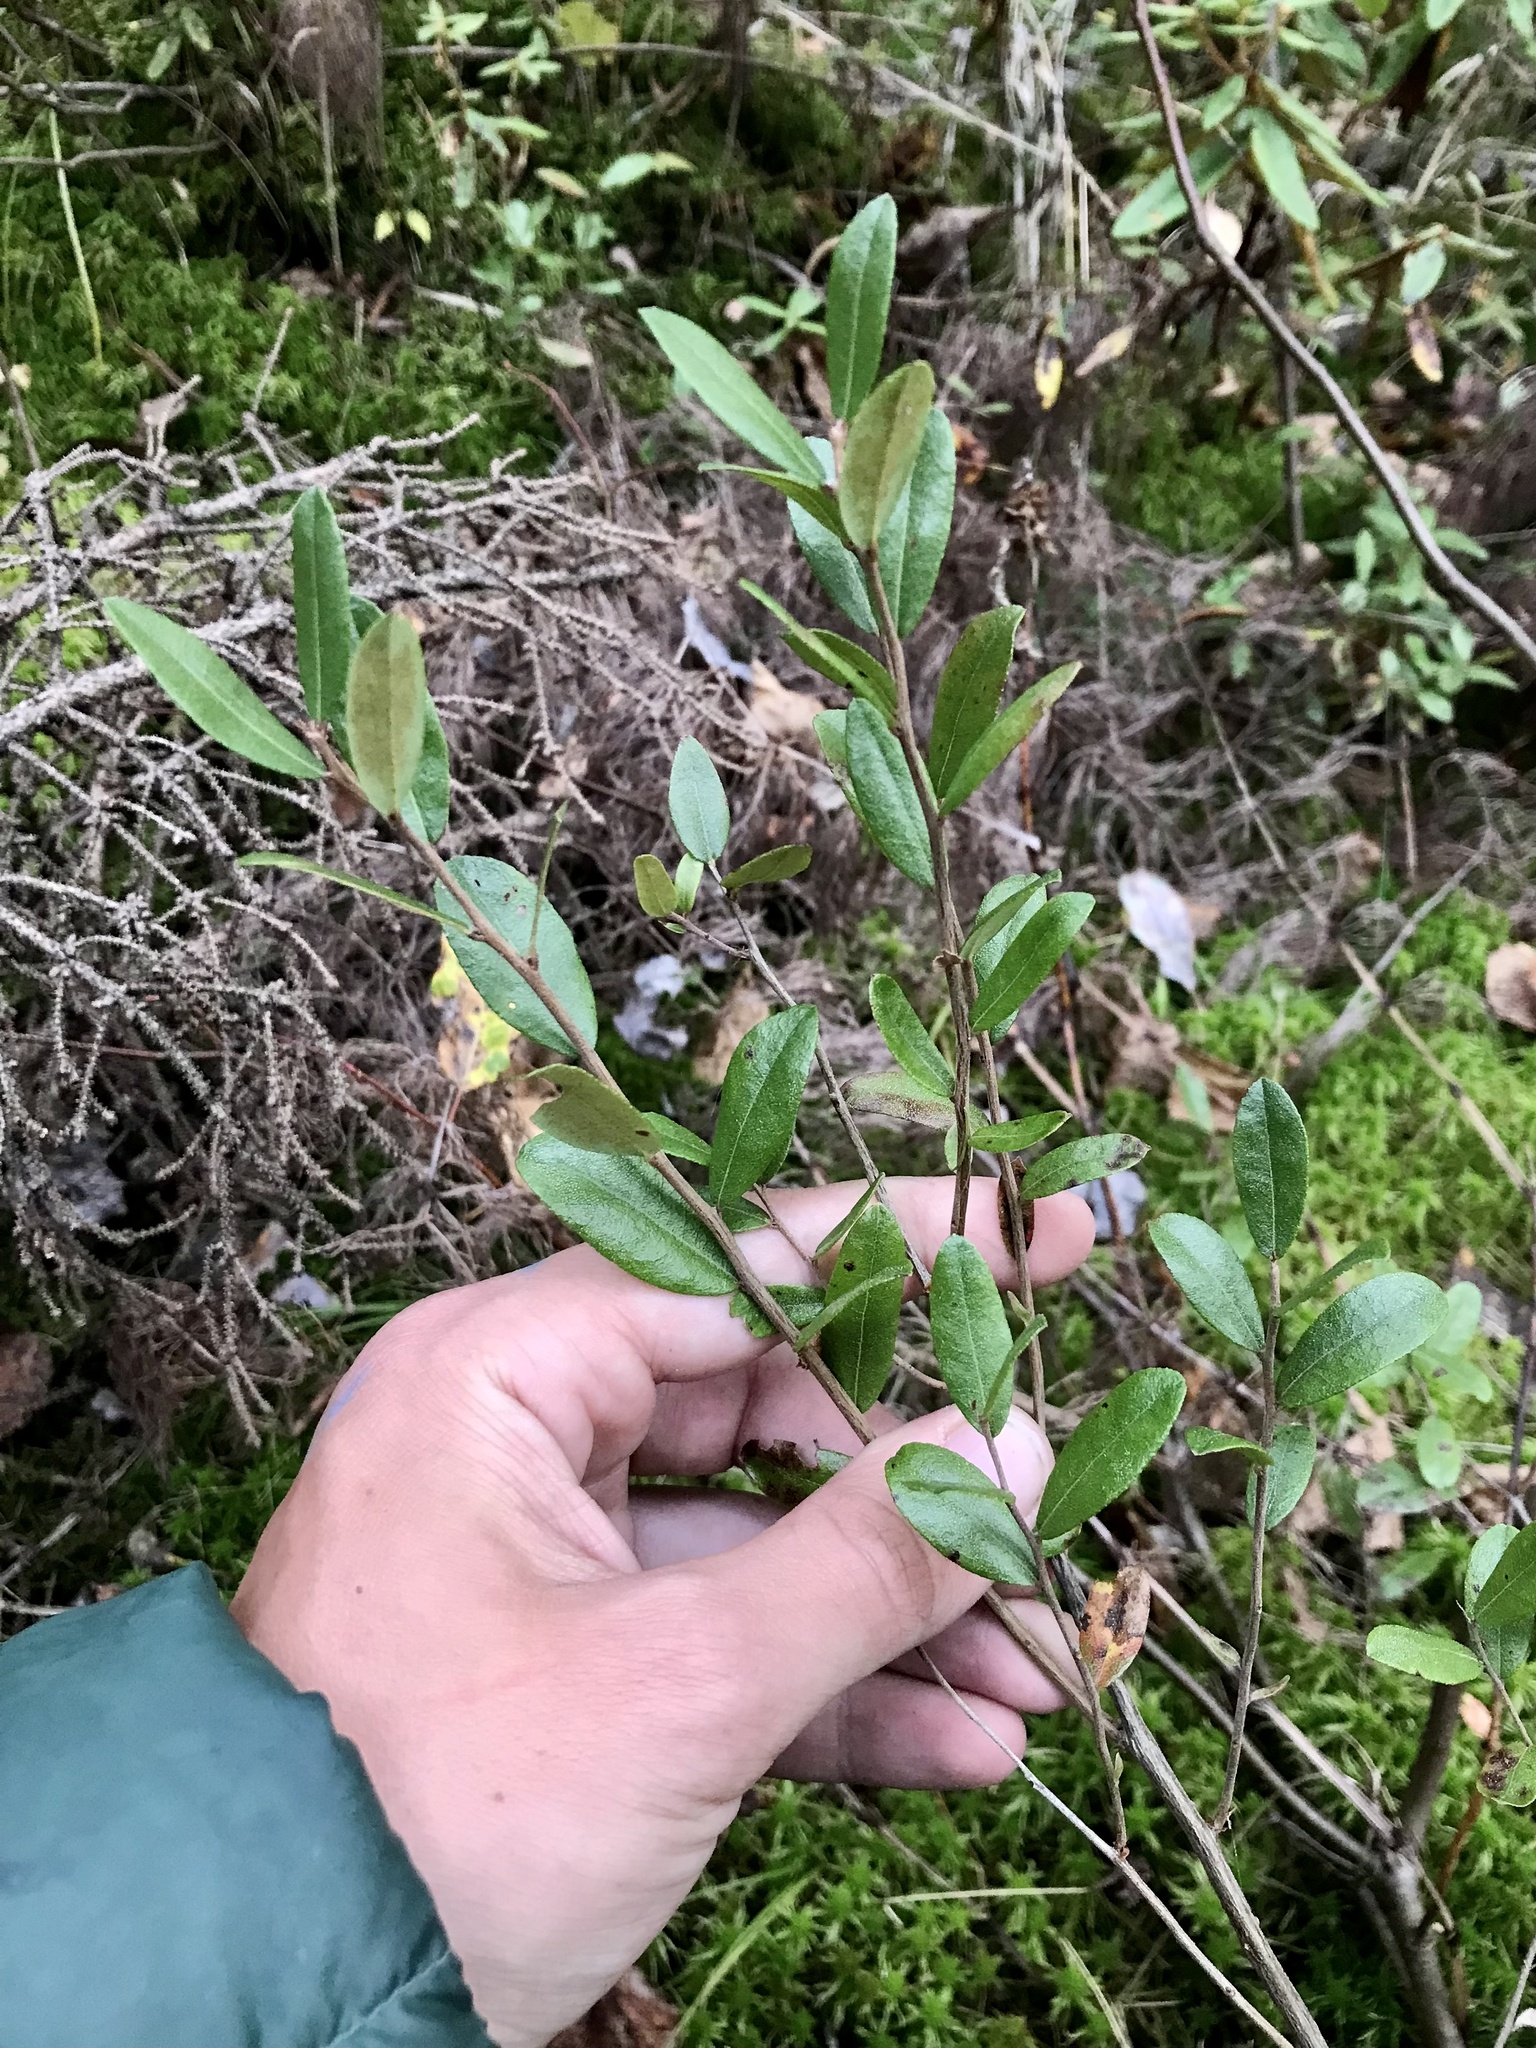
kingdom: Plantae
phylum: Tracheophyta
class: Magnoliopsida
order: Ericales
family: Ericaceae
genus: Chamaedaphne
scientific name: Chamaedaphne calyculata
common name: Leatherleaf
